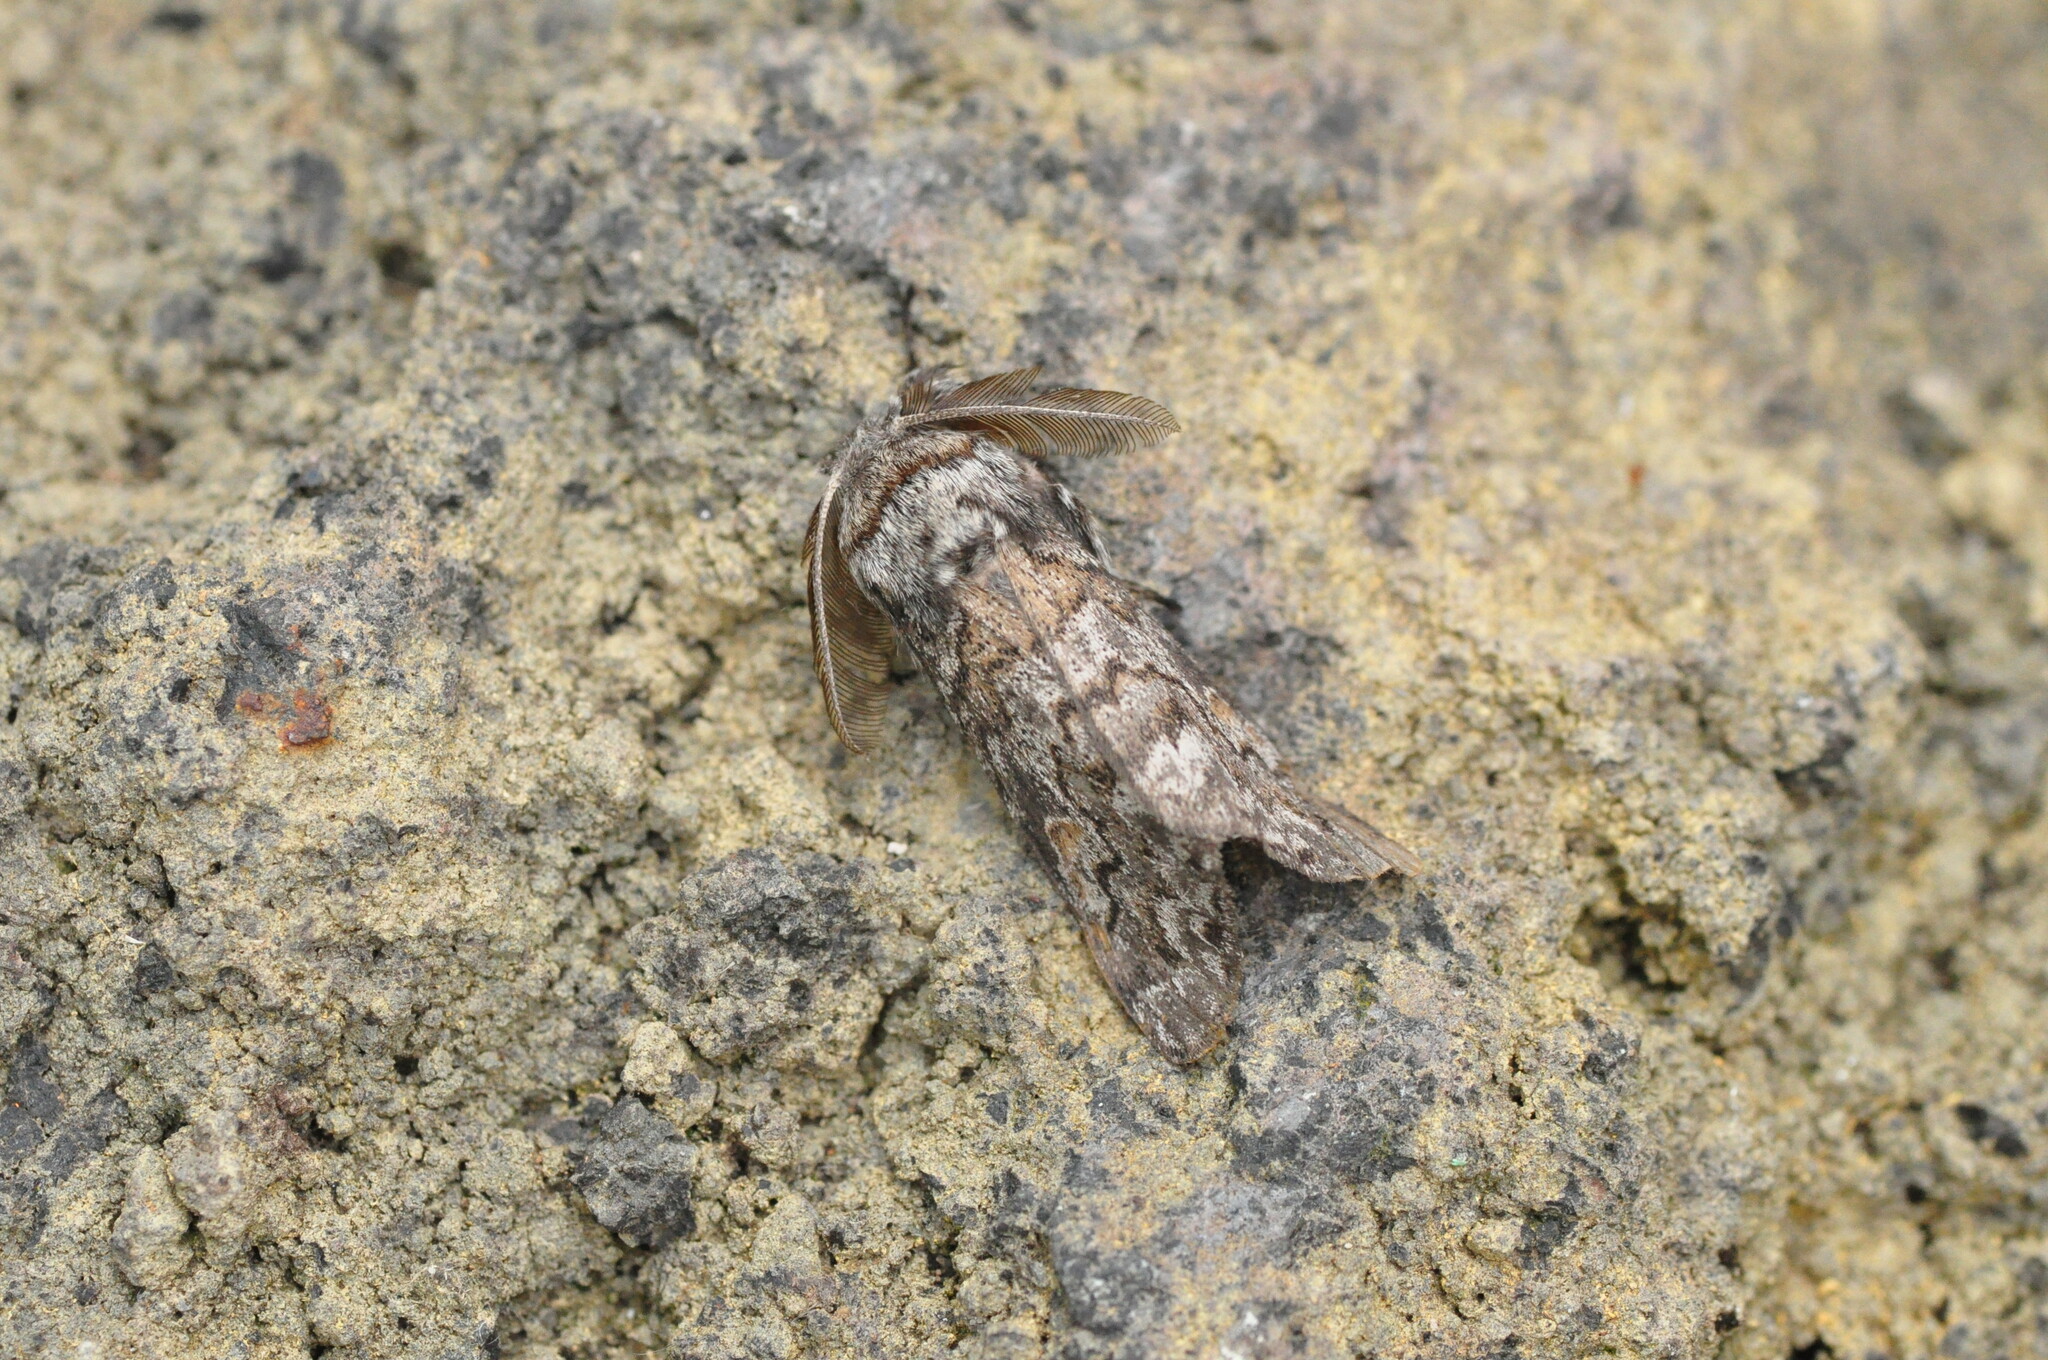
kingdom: Animalia
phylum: Arthropoda
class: Insecta
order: Lepidoptera
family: Erebidae
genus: Calliteara
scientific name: Calliteara
